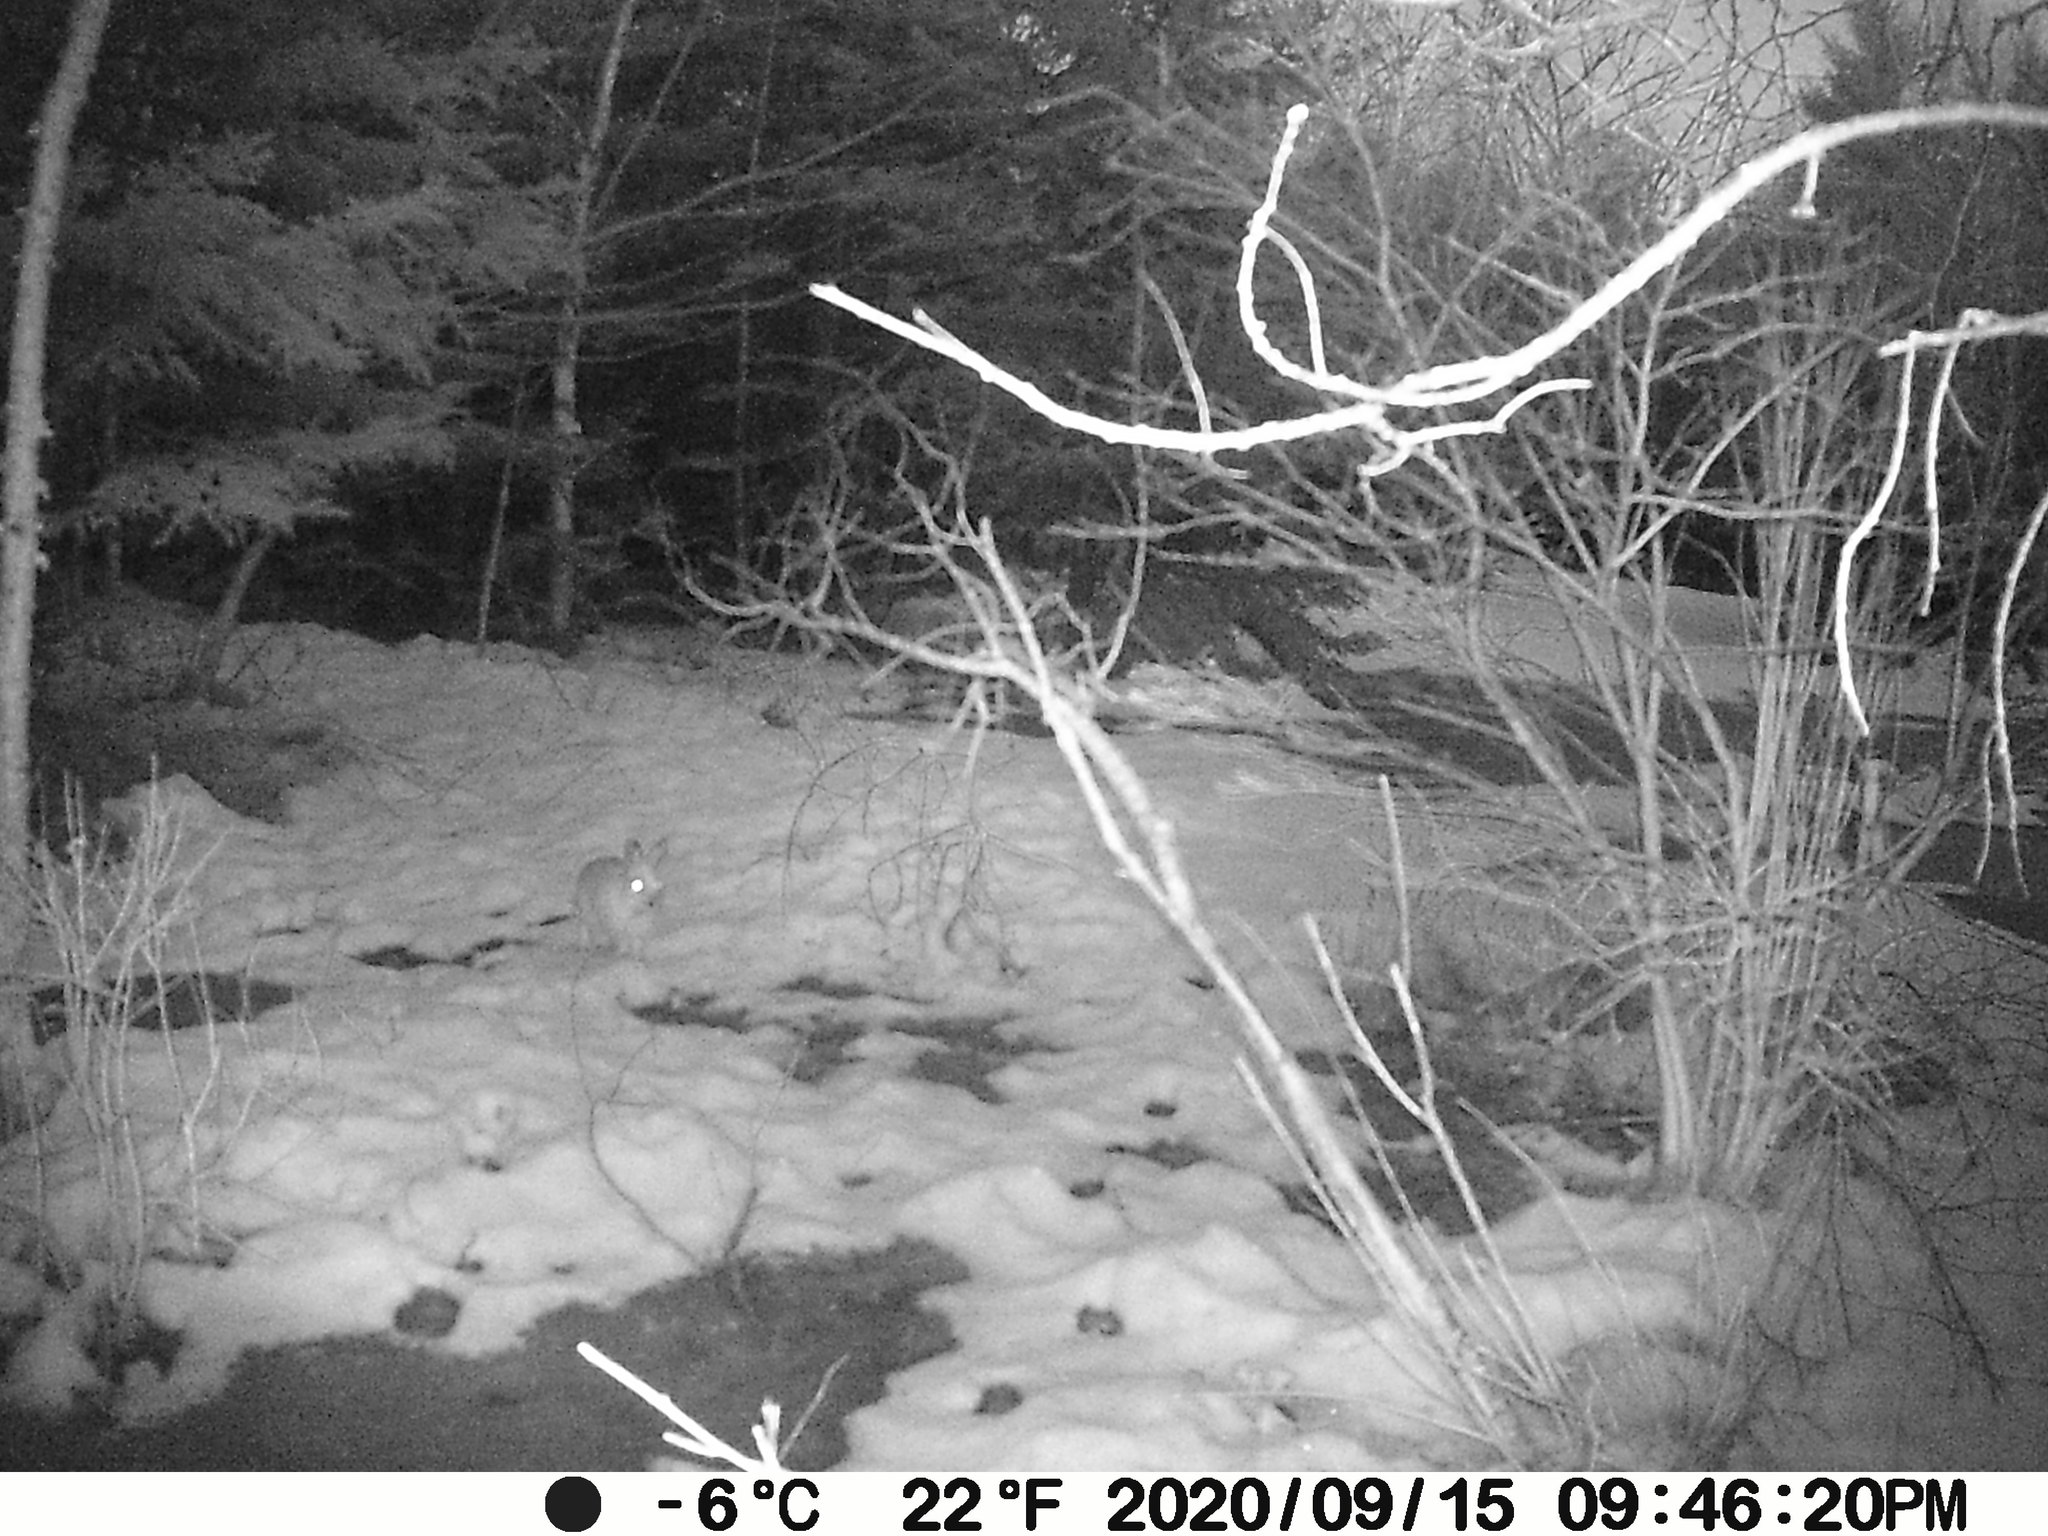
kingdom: Animalia
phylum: Chordata
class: Mammalia
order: Lagomorpha
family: Leporidae
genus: Lepus
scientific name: Lepus americanus
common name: Snowshoe hare
